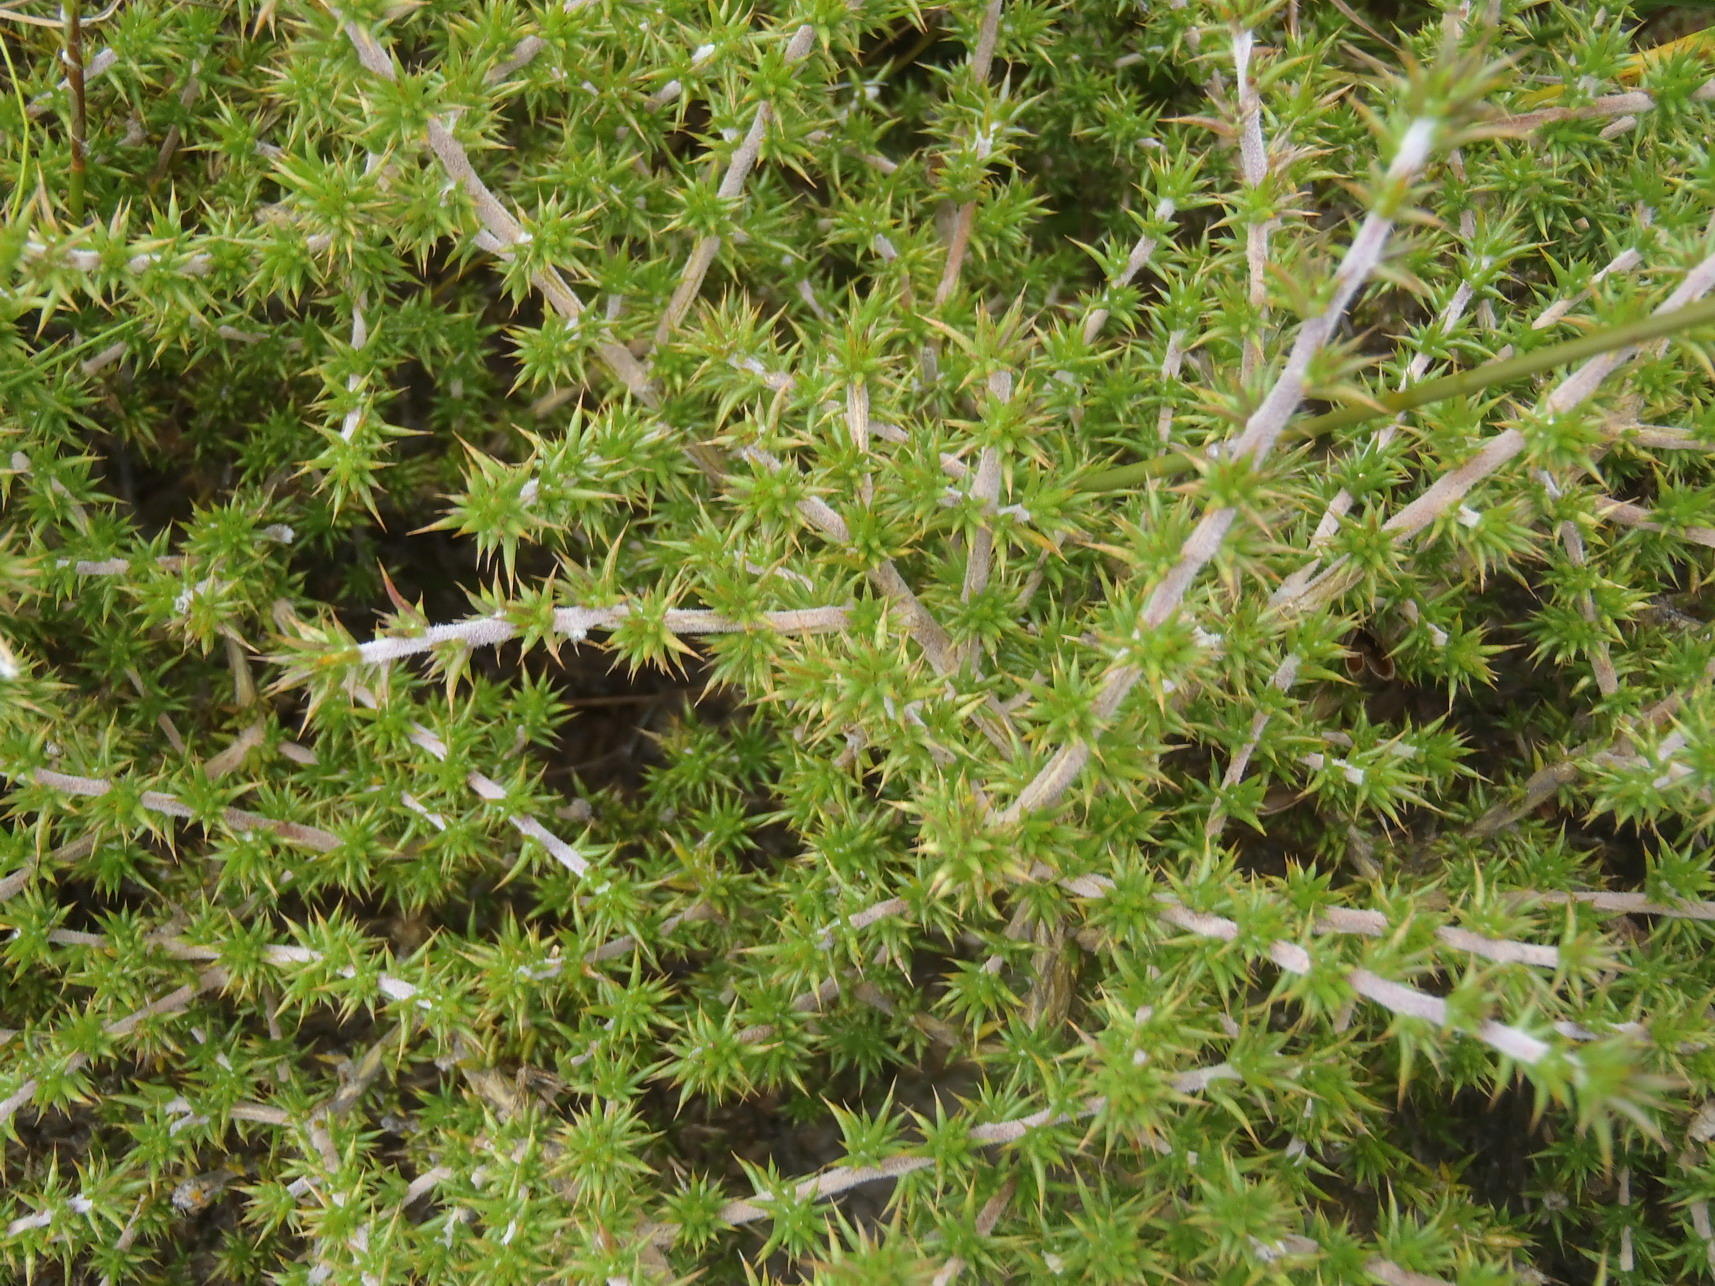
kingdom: Plantae
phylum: Tracheophyta
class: Magnoliopsida
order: Fabales
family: Fabaceae
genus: Aspalathus
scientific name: Aspalathus aciphylla
